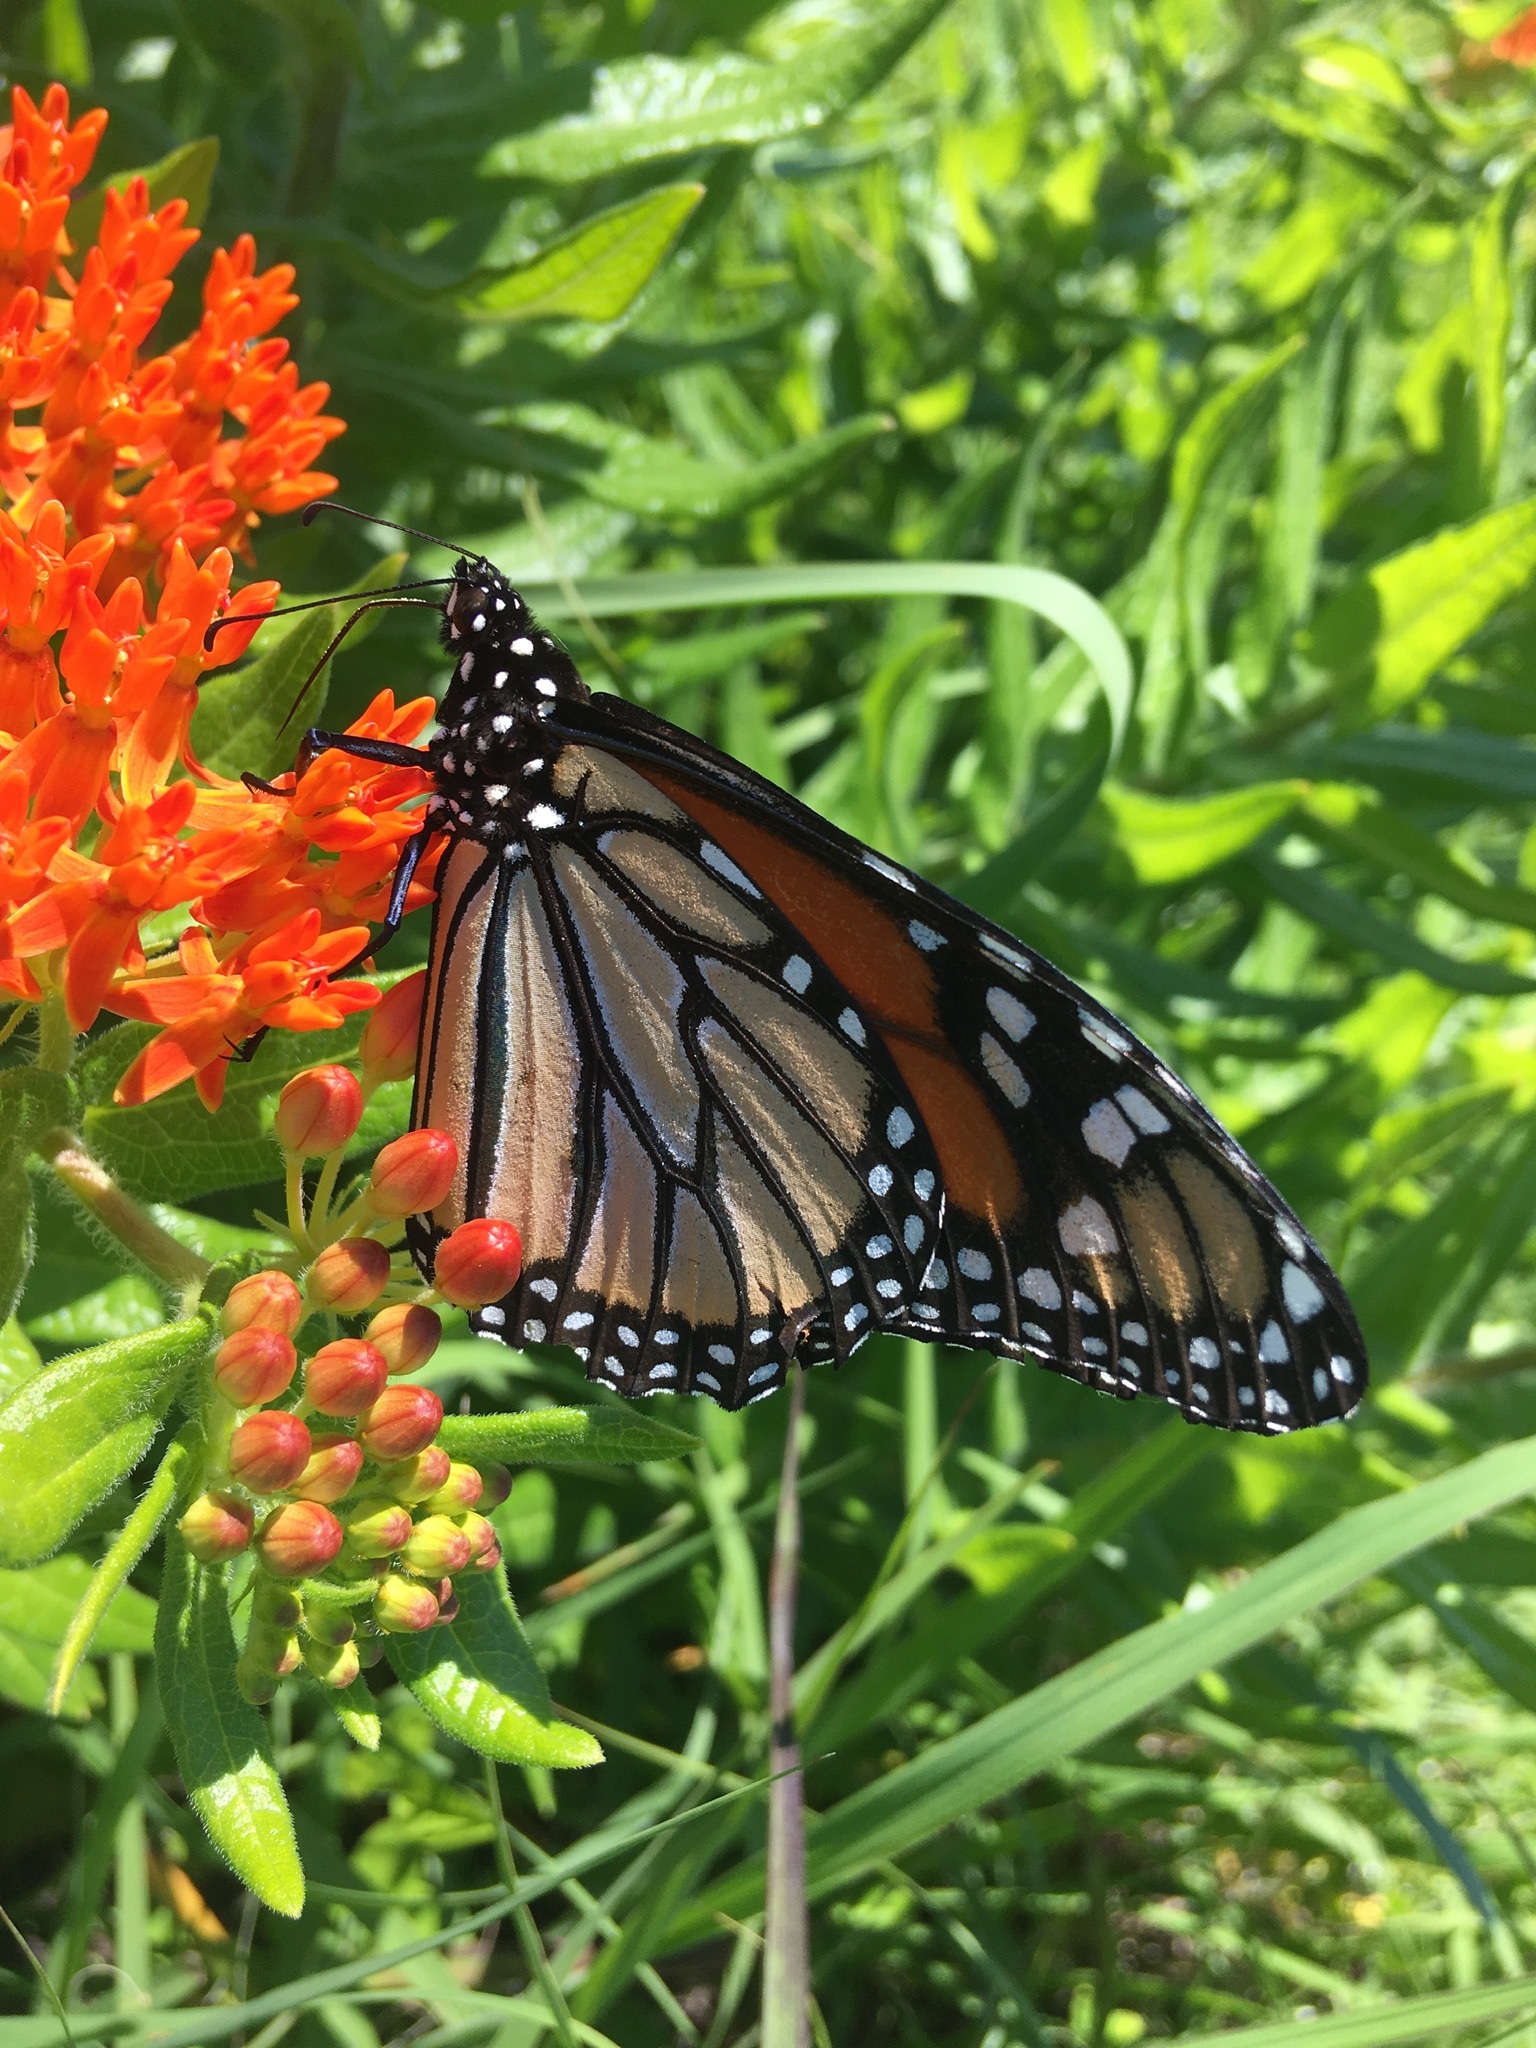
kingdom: Animalia
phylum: Arthropoda
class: Insecta
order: Lepidoptera
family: Nymphalidae
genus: Danaus
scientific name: Danaus plexippus
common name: Monarch
